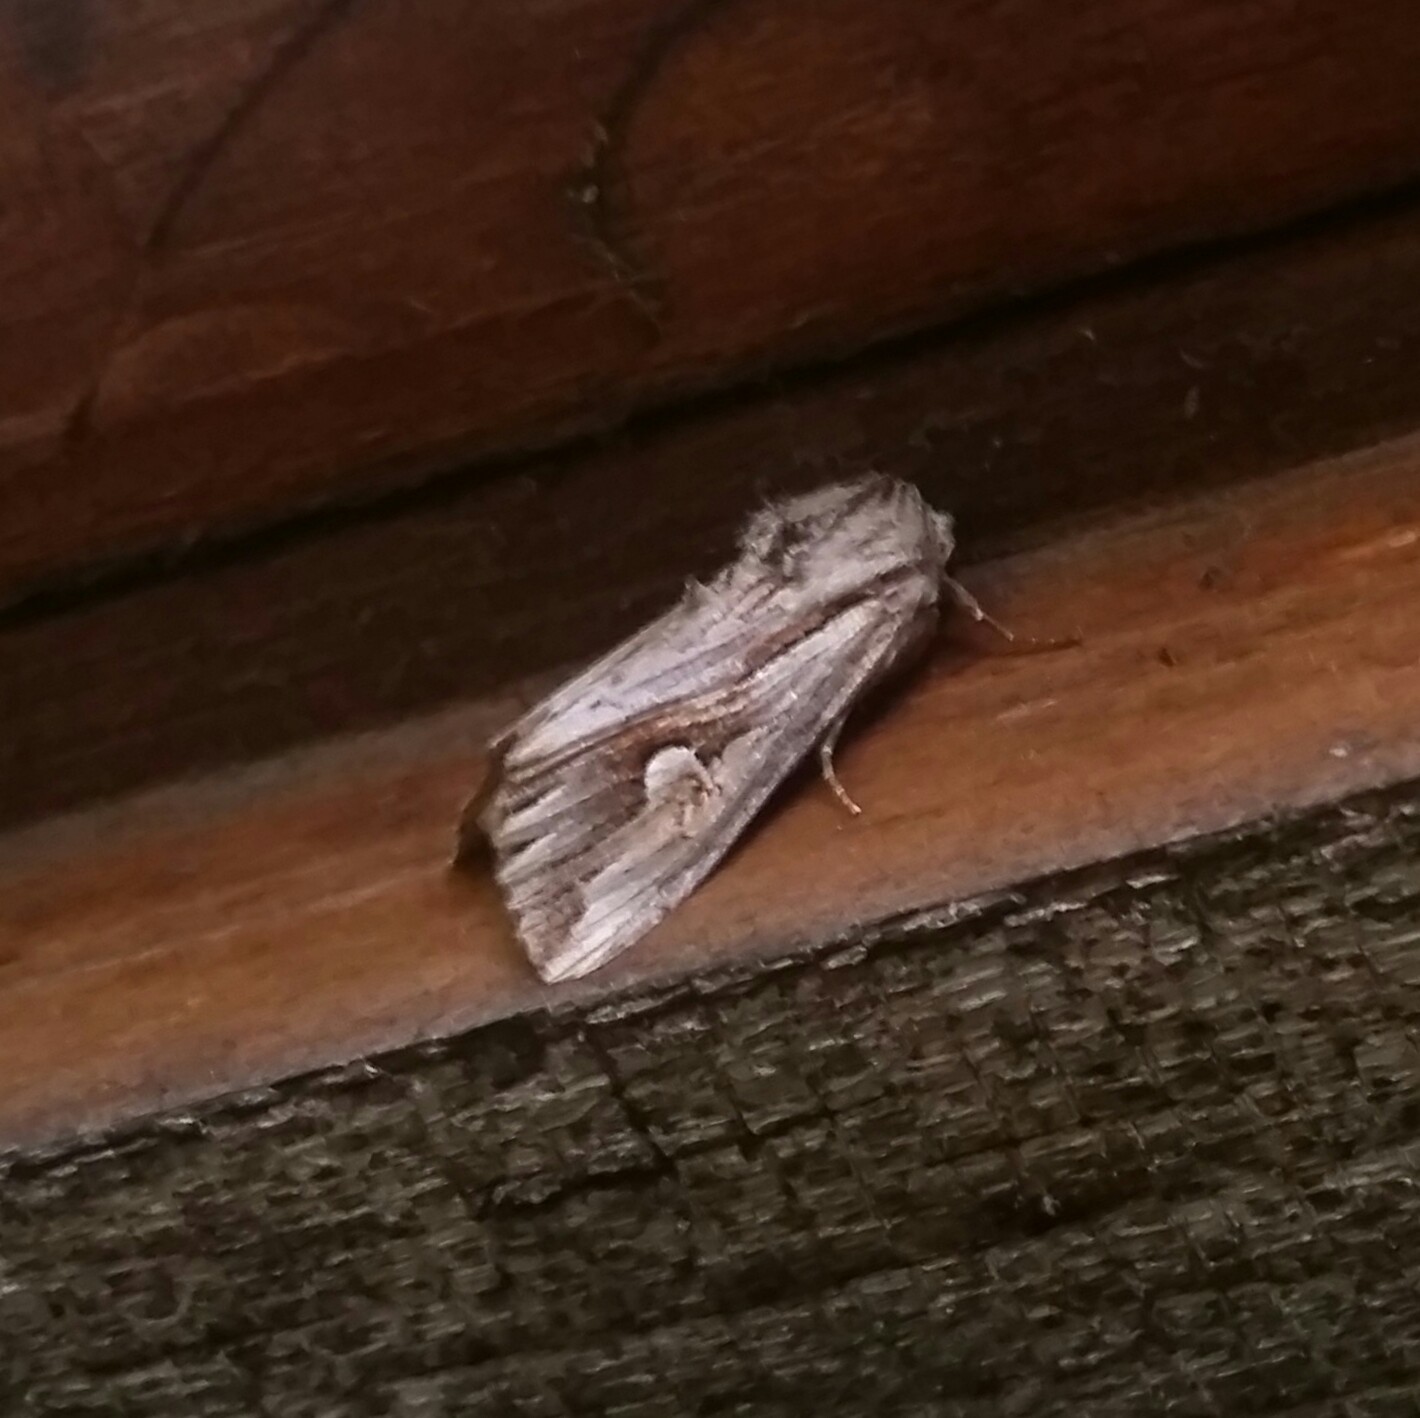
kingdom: Animalia
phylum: Arthropoda
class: Insecta
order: Lepidoptera
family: Noctuidae
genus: Nedra
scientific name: Nedra ramosula
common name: Gray half-spot
